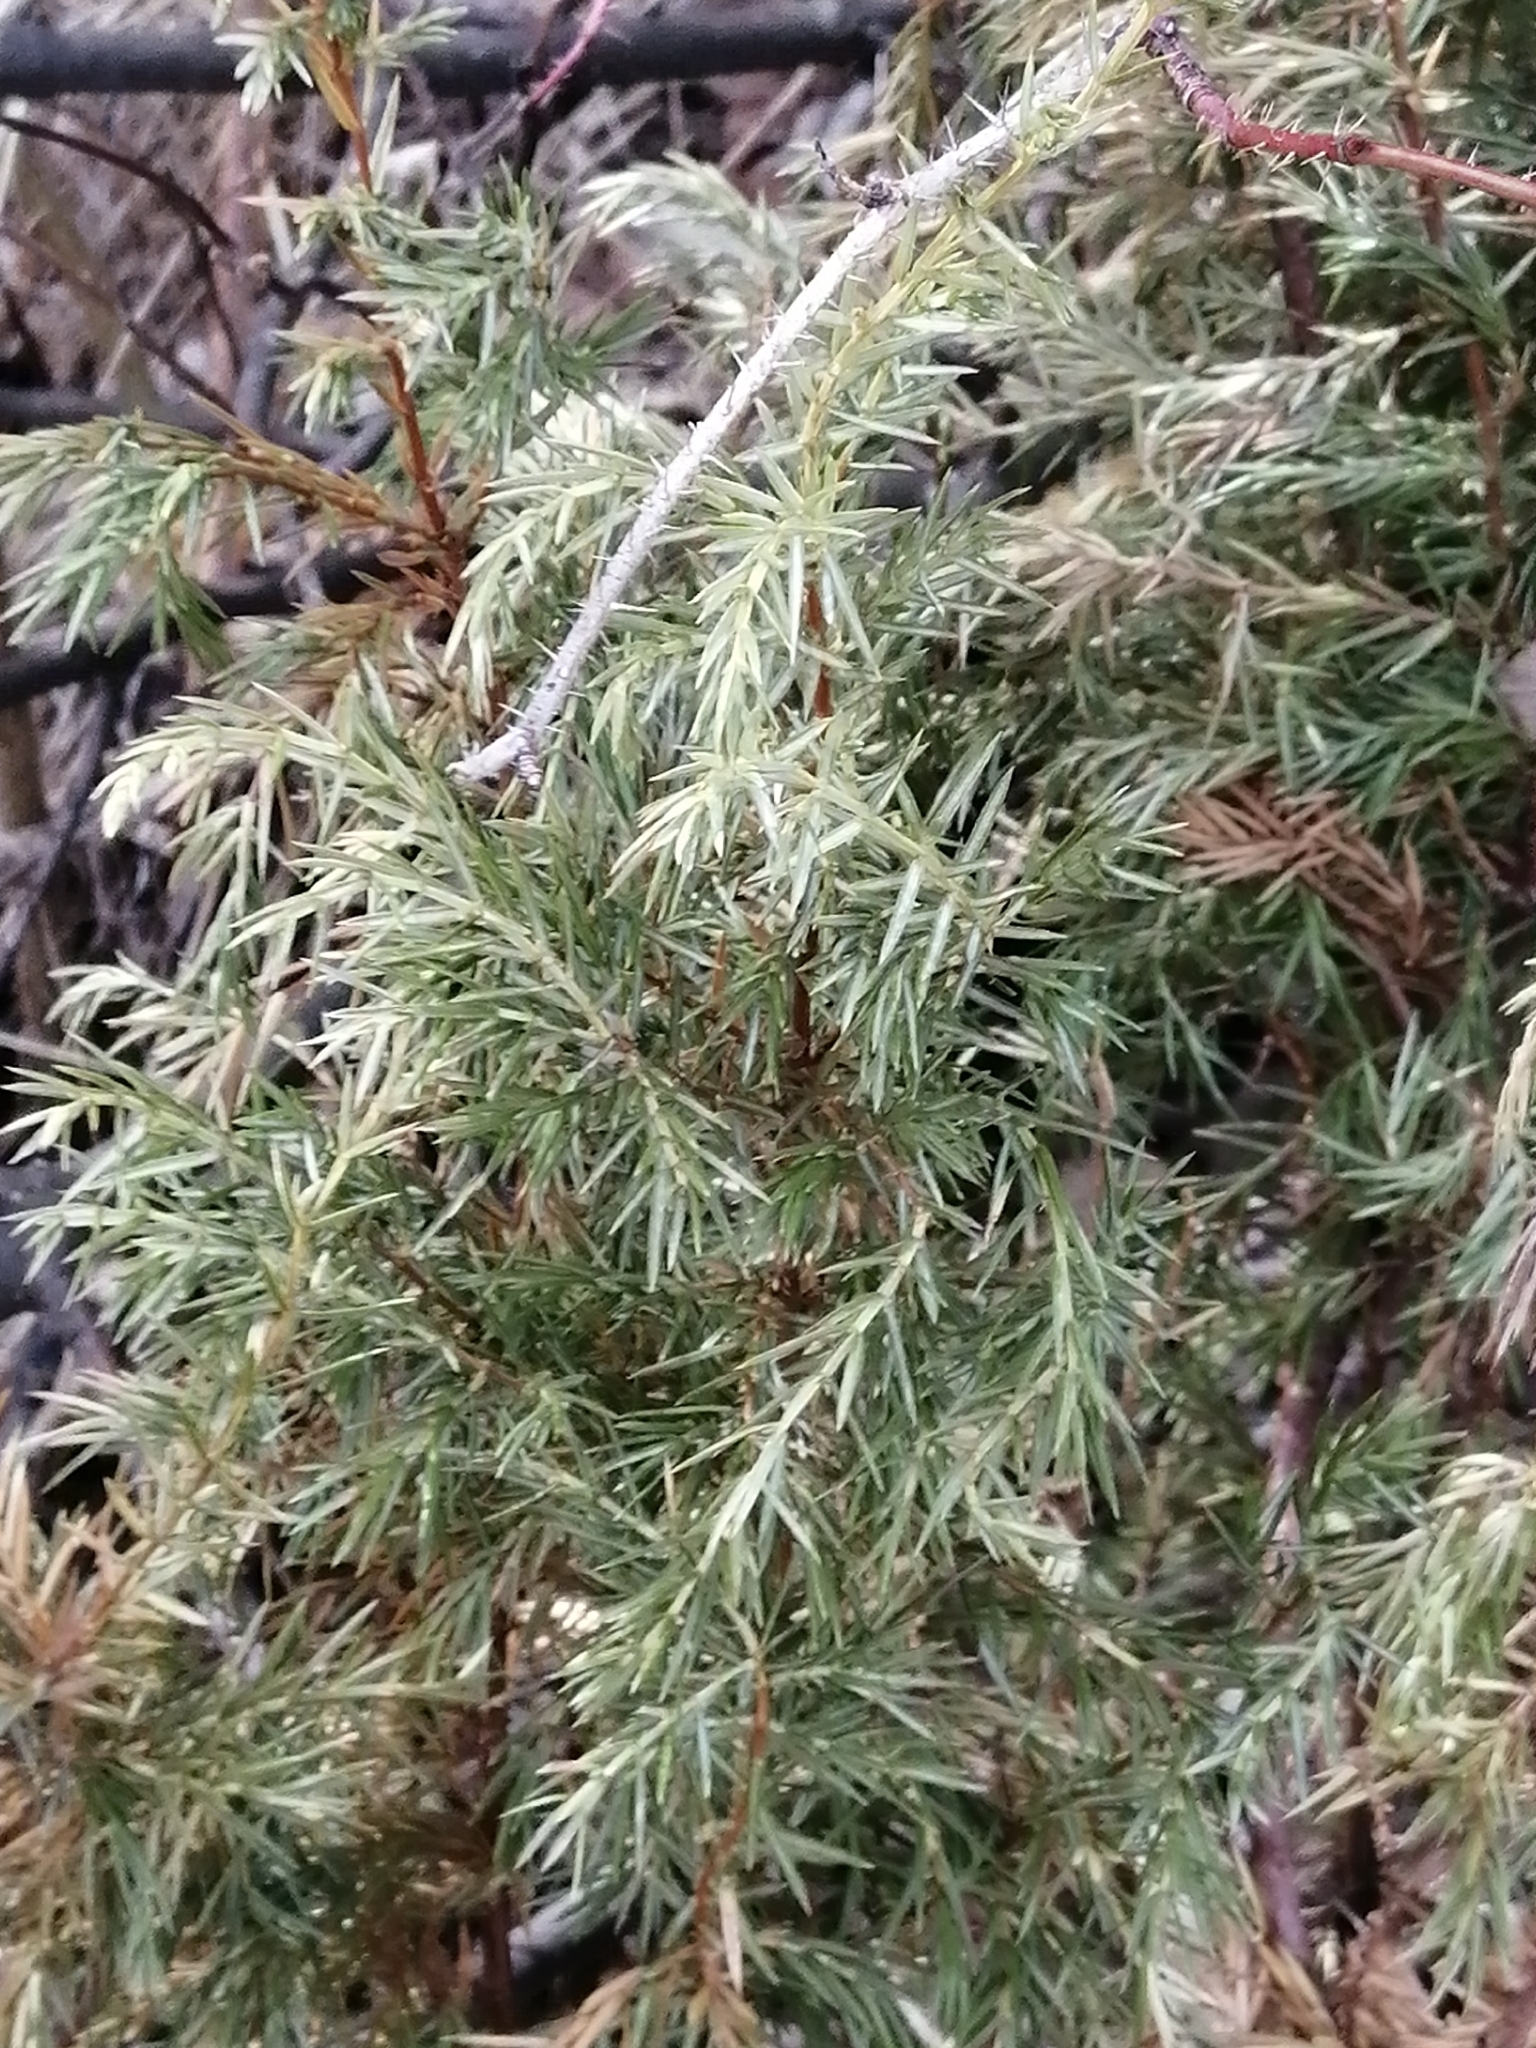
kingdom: Plantae
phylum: Tracheophyta
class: Pinopsida
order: Pinales
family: Cupressaceae
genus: Juniperus
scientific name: Juniperus communis
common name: Common juniper
